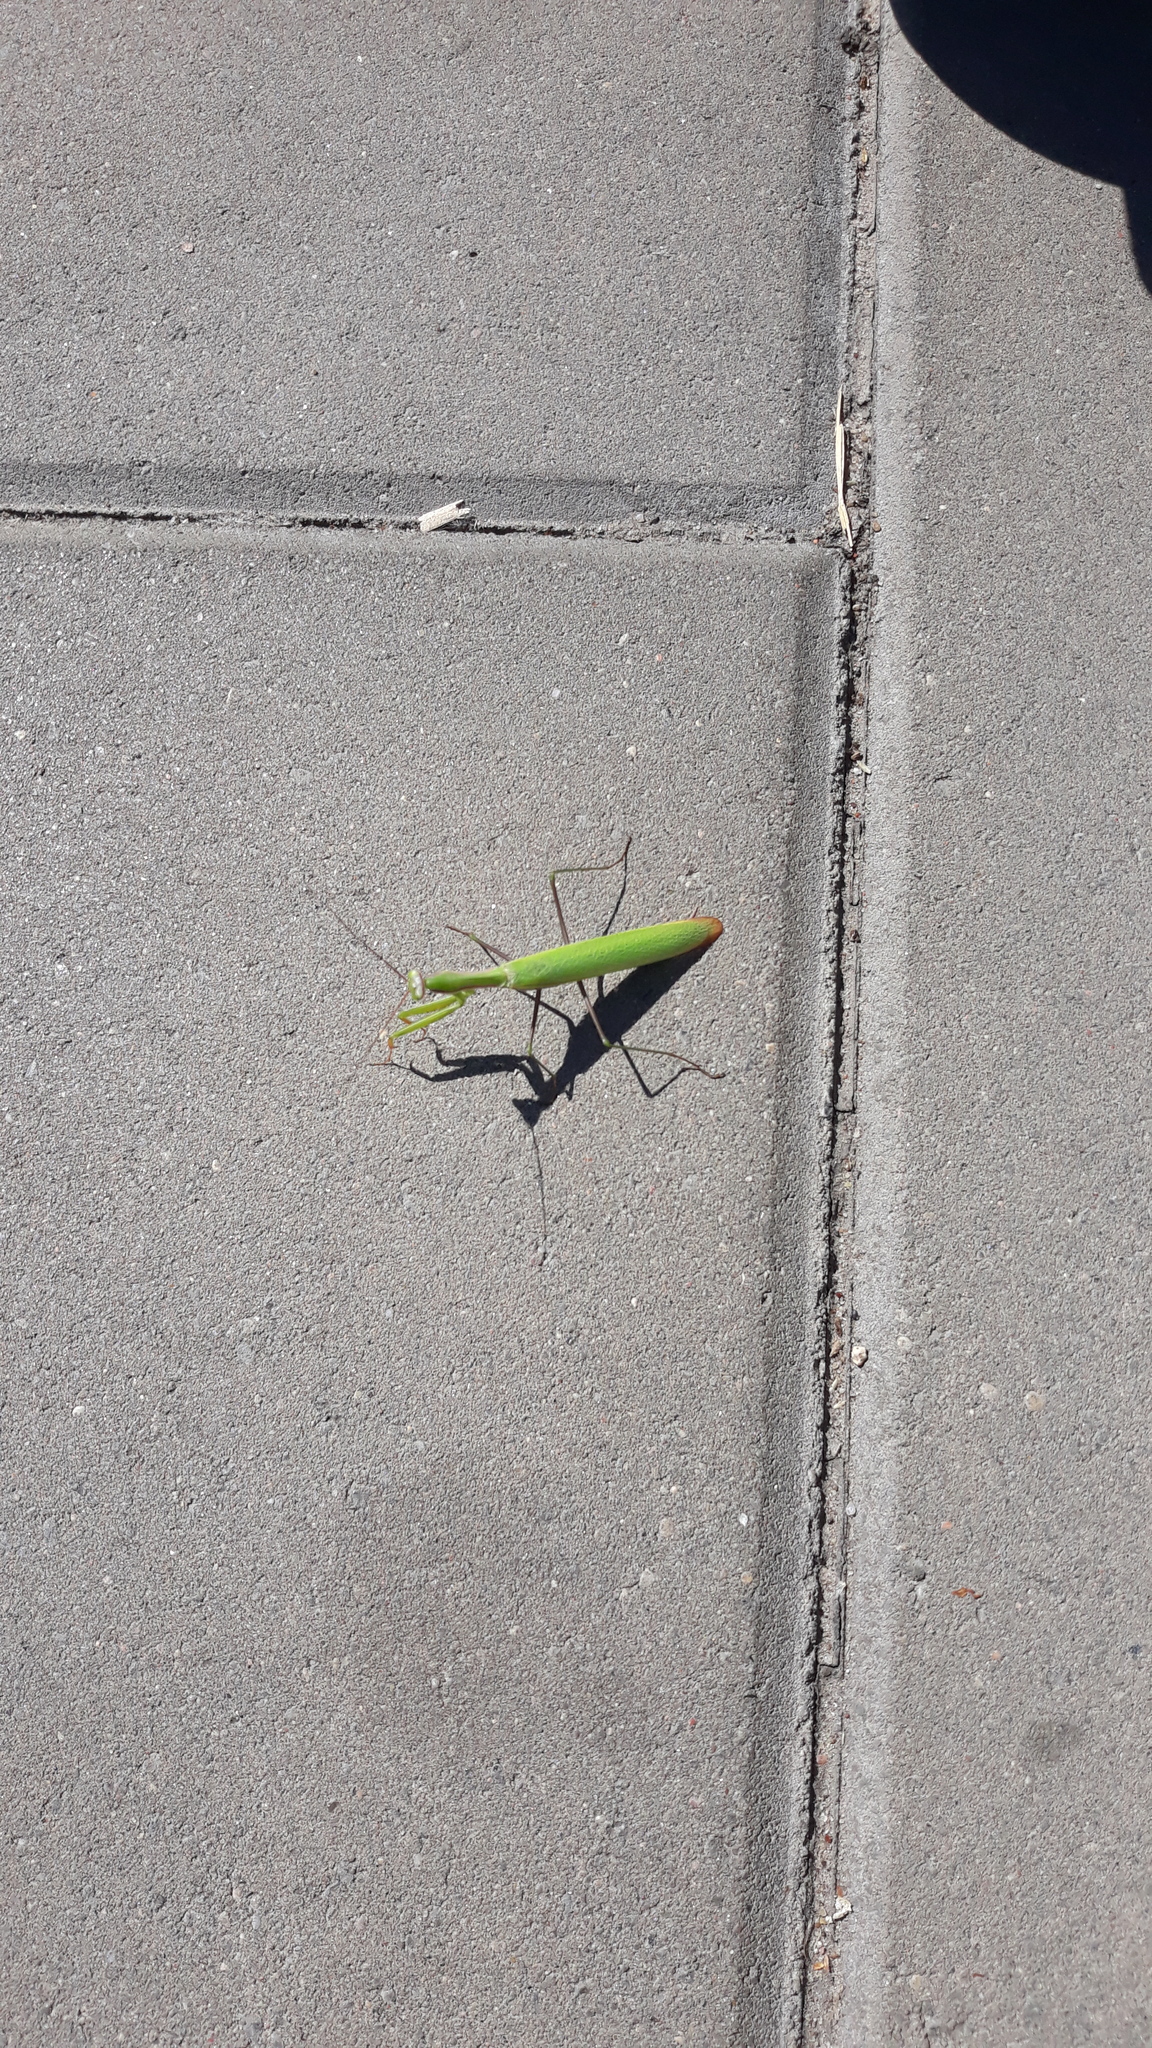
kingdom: Animalia
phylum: Arthropoda
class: Insecta
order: Mantodea
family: Mantidae
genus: Mantis
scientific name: Mantis religiosa
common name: Praying mantis
